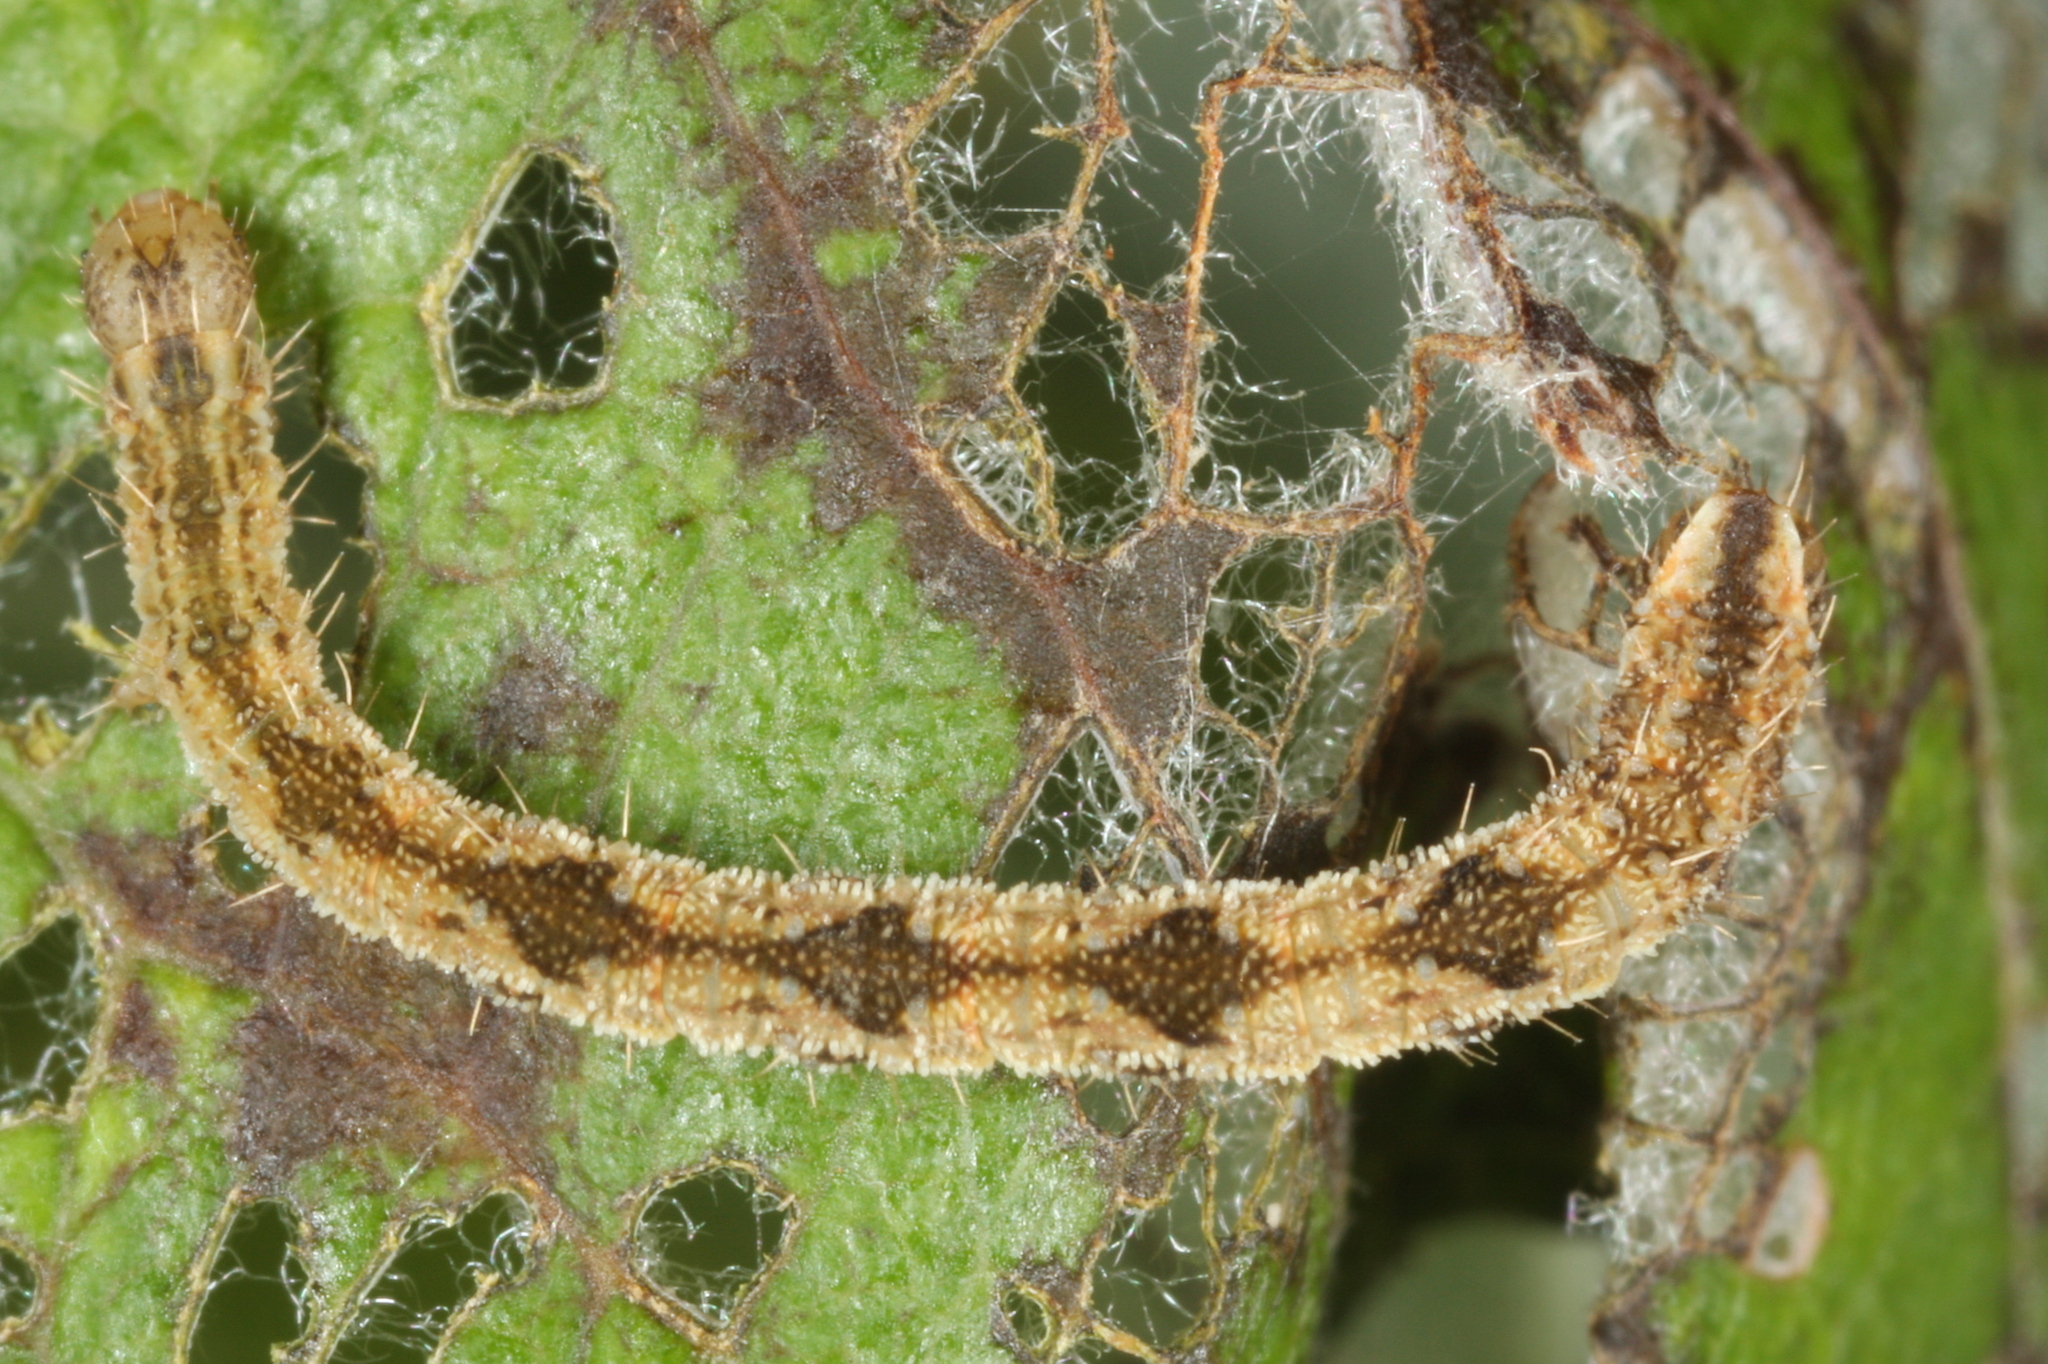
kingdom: Animalia
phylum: Arthropoda
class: Insecta
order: Lepidoptera
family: Geometridae
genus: Eupithecia
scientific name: Eupithecia subfuscata
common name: Grey pug
